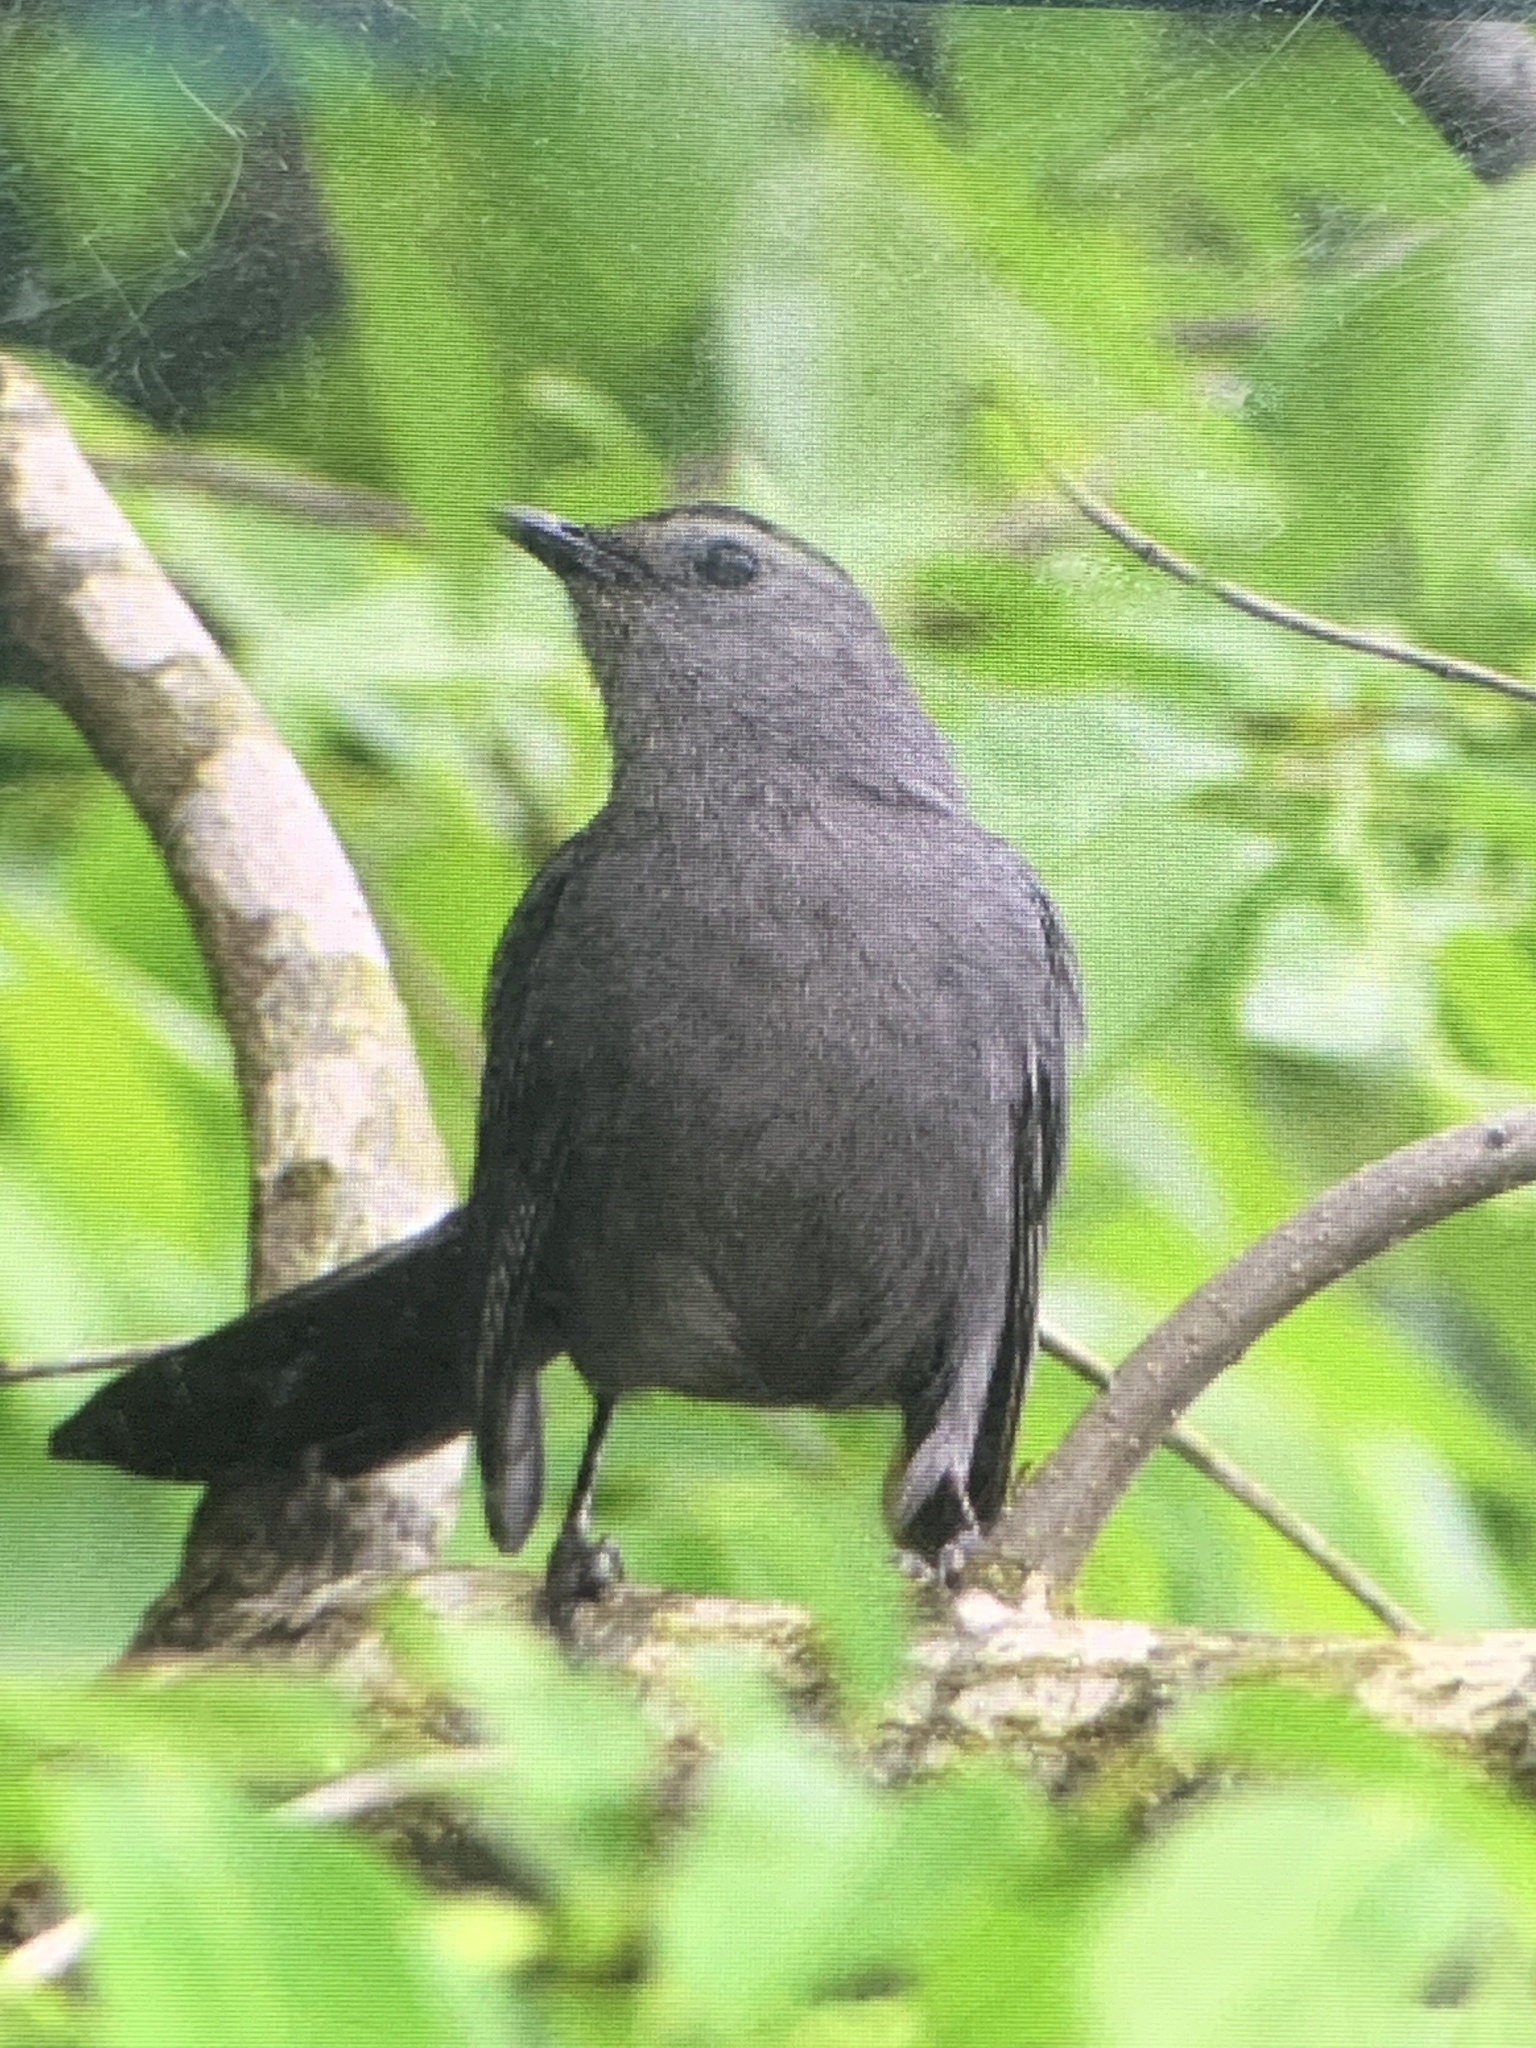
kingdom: Animalia
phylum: Chordata
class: Aves
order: Passeriformes
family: Mimidae
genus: Dumetella
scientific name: Dumetella carolinensis
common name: Gray catbird
